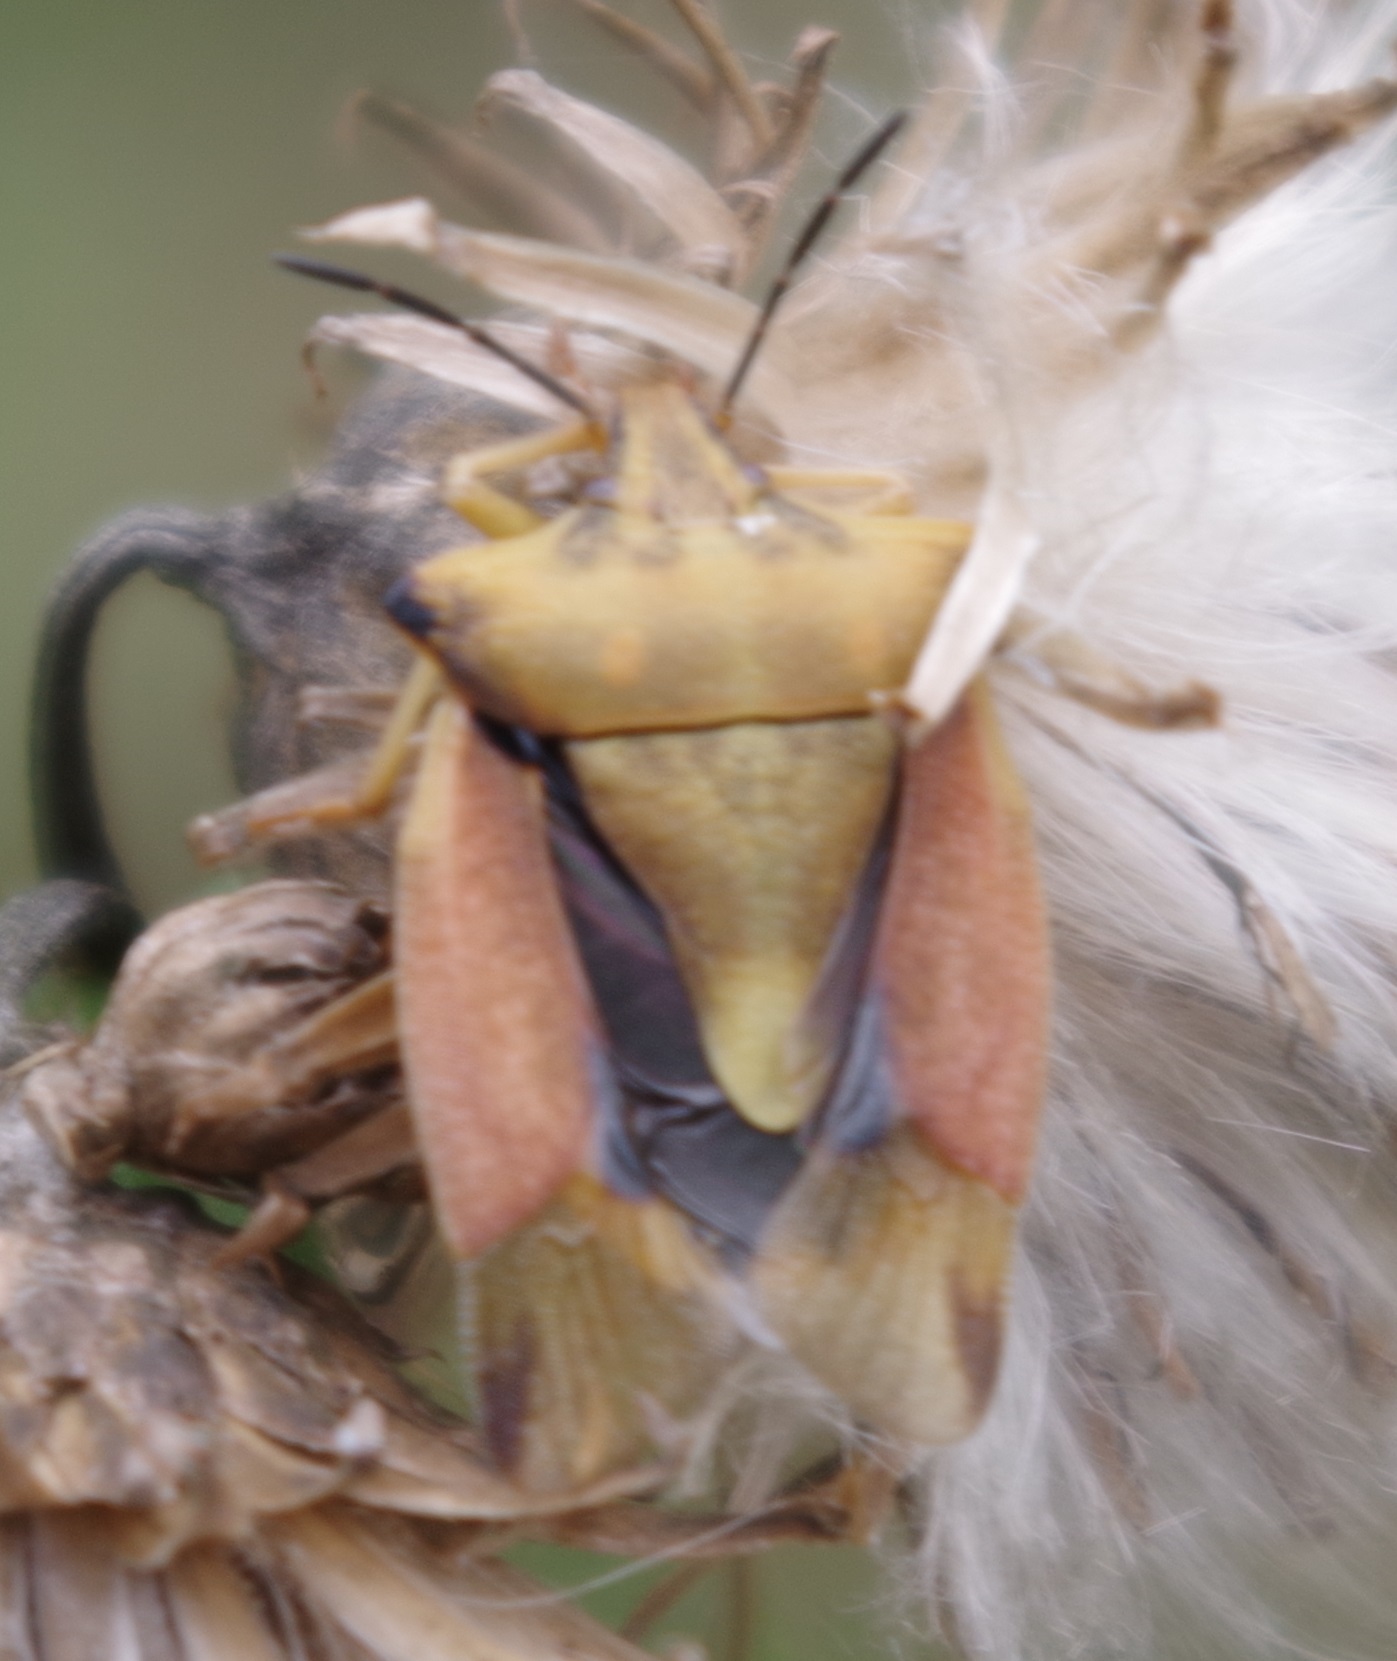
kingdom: Animalia
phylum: Arthropoda
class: Insecta
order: Hemiptera
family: Pentatomidae
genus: Carpocoris
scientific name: Carpocoris fuscispinus
